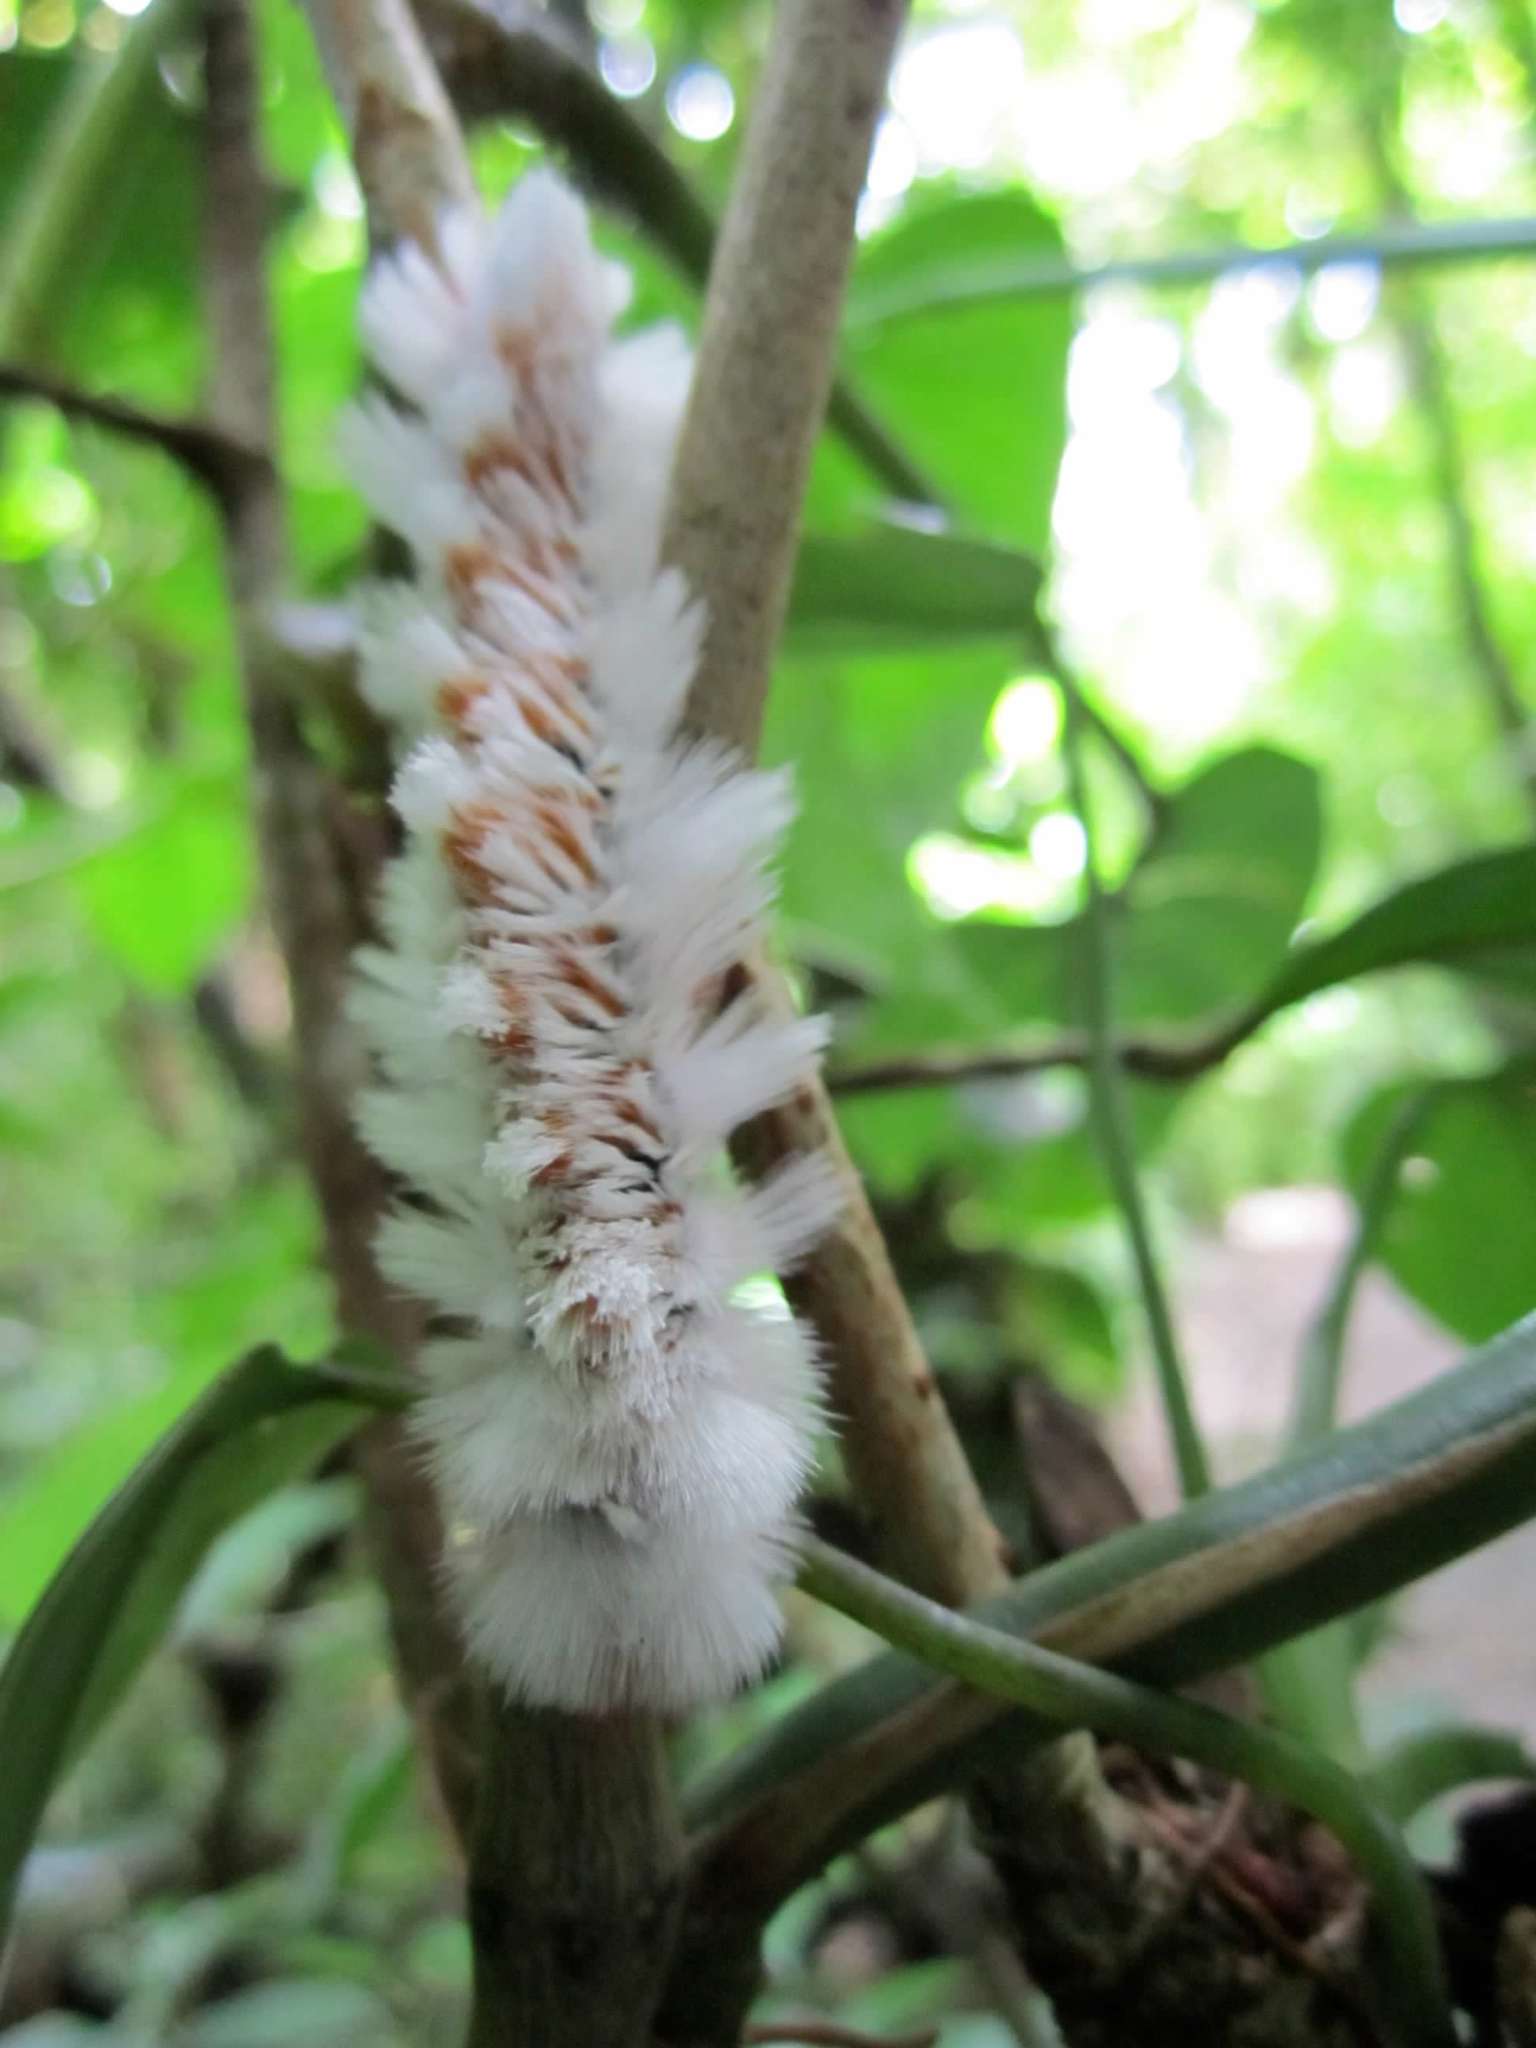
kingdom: Animalia
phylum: Arthropoda
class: Insecta
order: Lepidoptera
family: Eupterotidae
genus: Neopreptos
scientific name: Neopreptos marathusa
